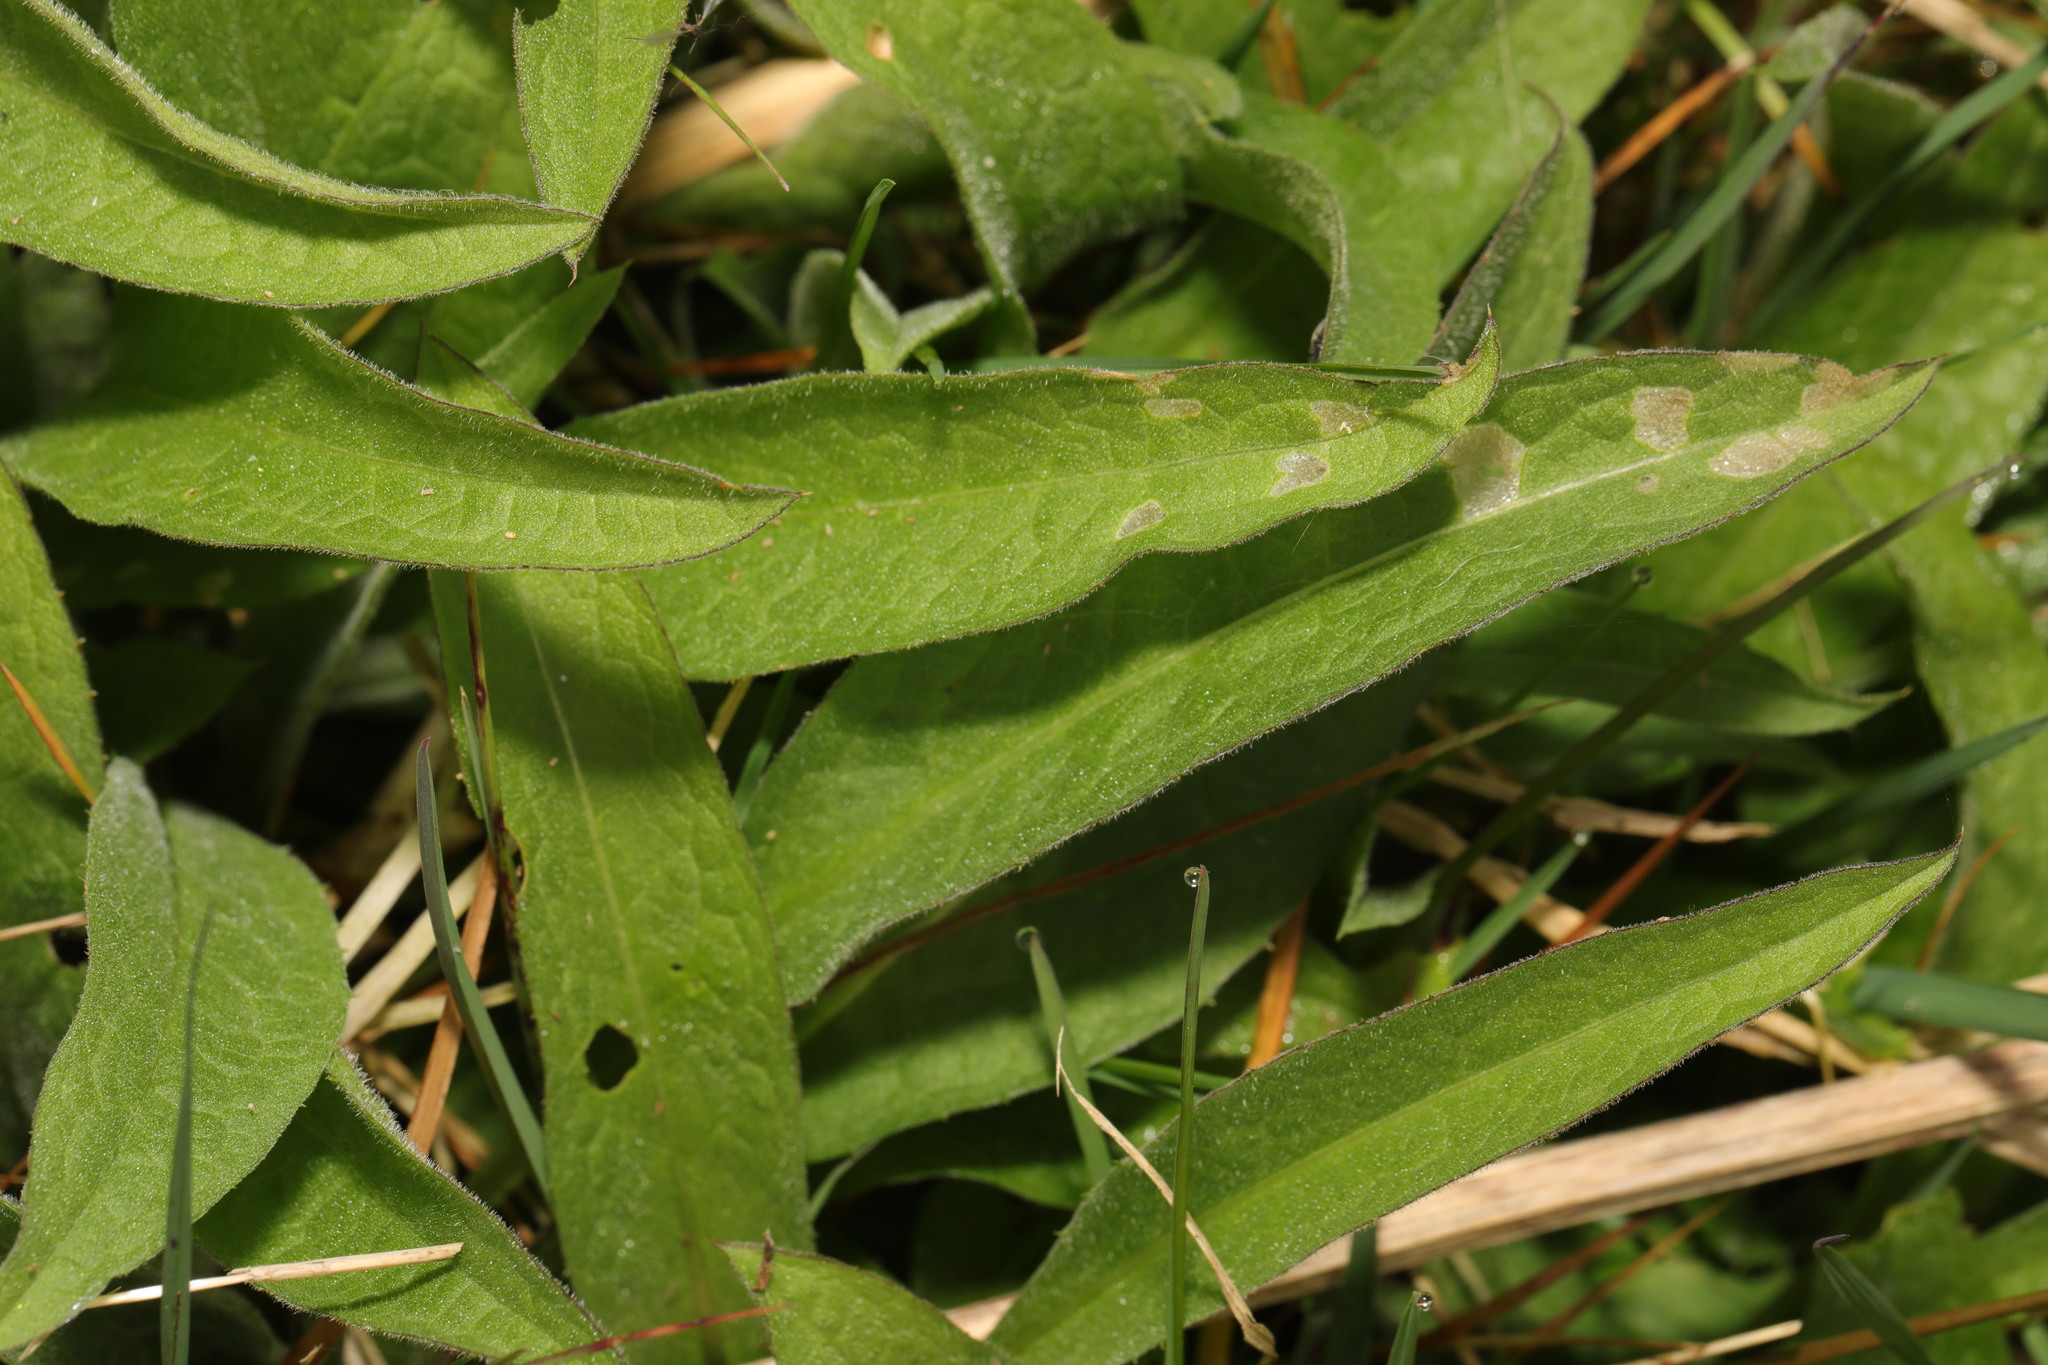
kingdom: Plantae
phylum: Tracheophyta
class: Magnoliopsida
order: Asterales
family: Asteraceae
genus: Centaurea
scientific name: Centaurea nigra
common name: Lesser knapweed
